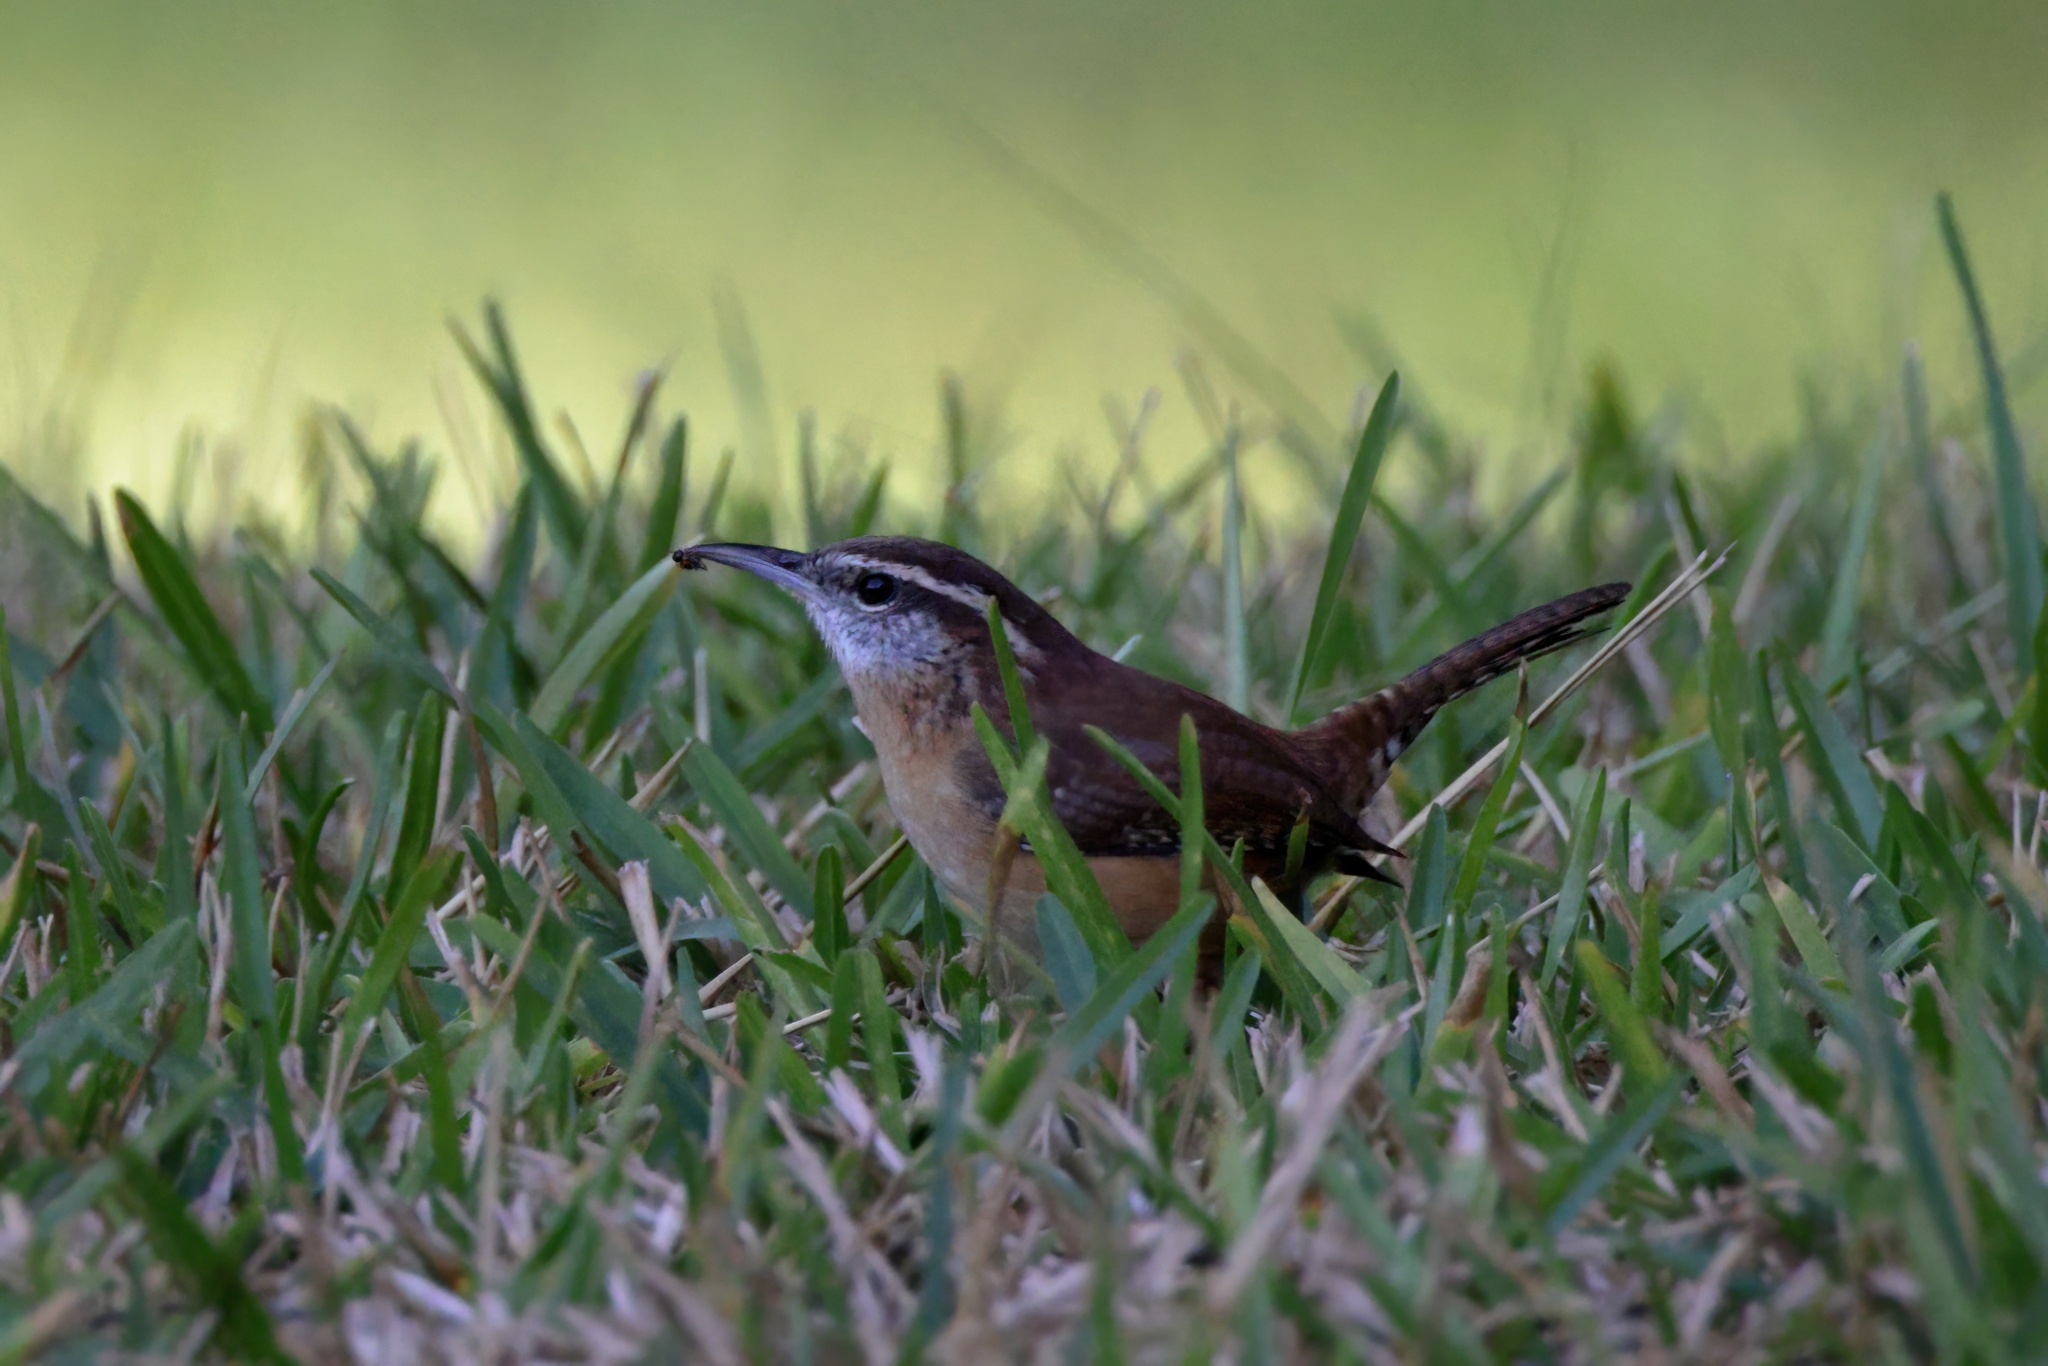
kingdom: Animalia
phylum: Chordata
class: Aves
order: Passeriformes
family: Troglodytidae
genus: Thryothorus
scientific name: Thryothorus ludovicianus
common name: Carolina wren
